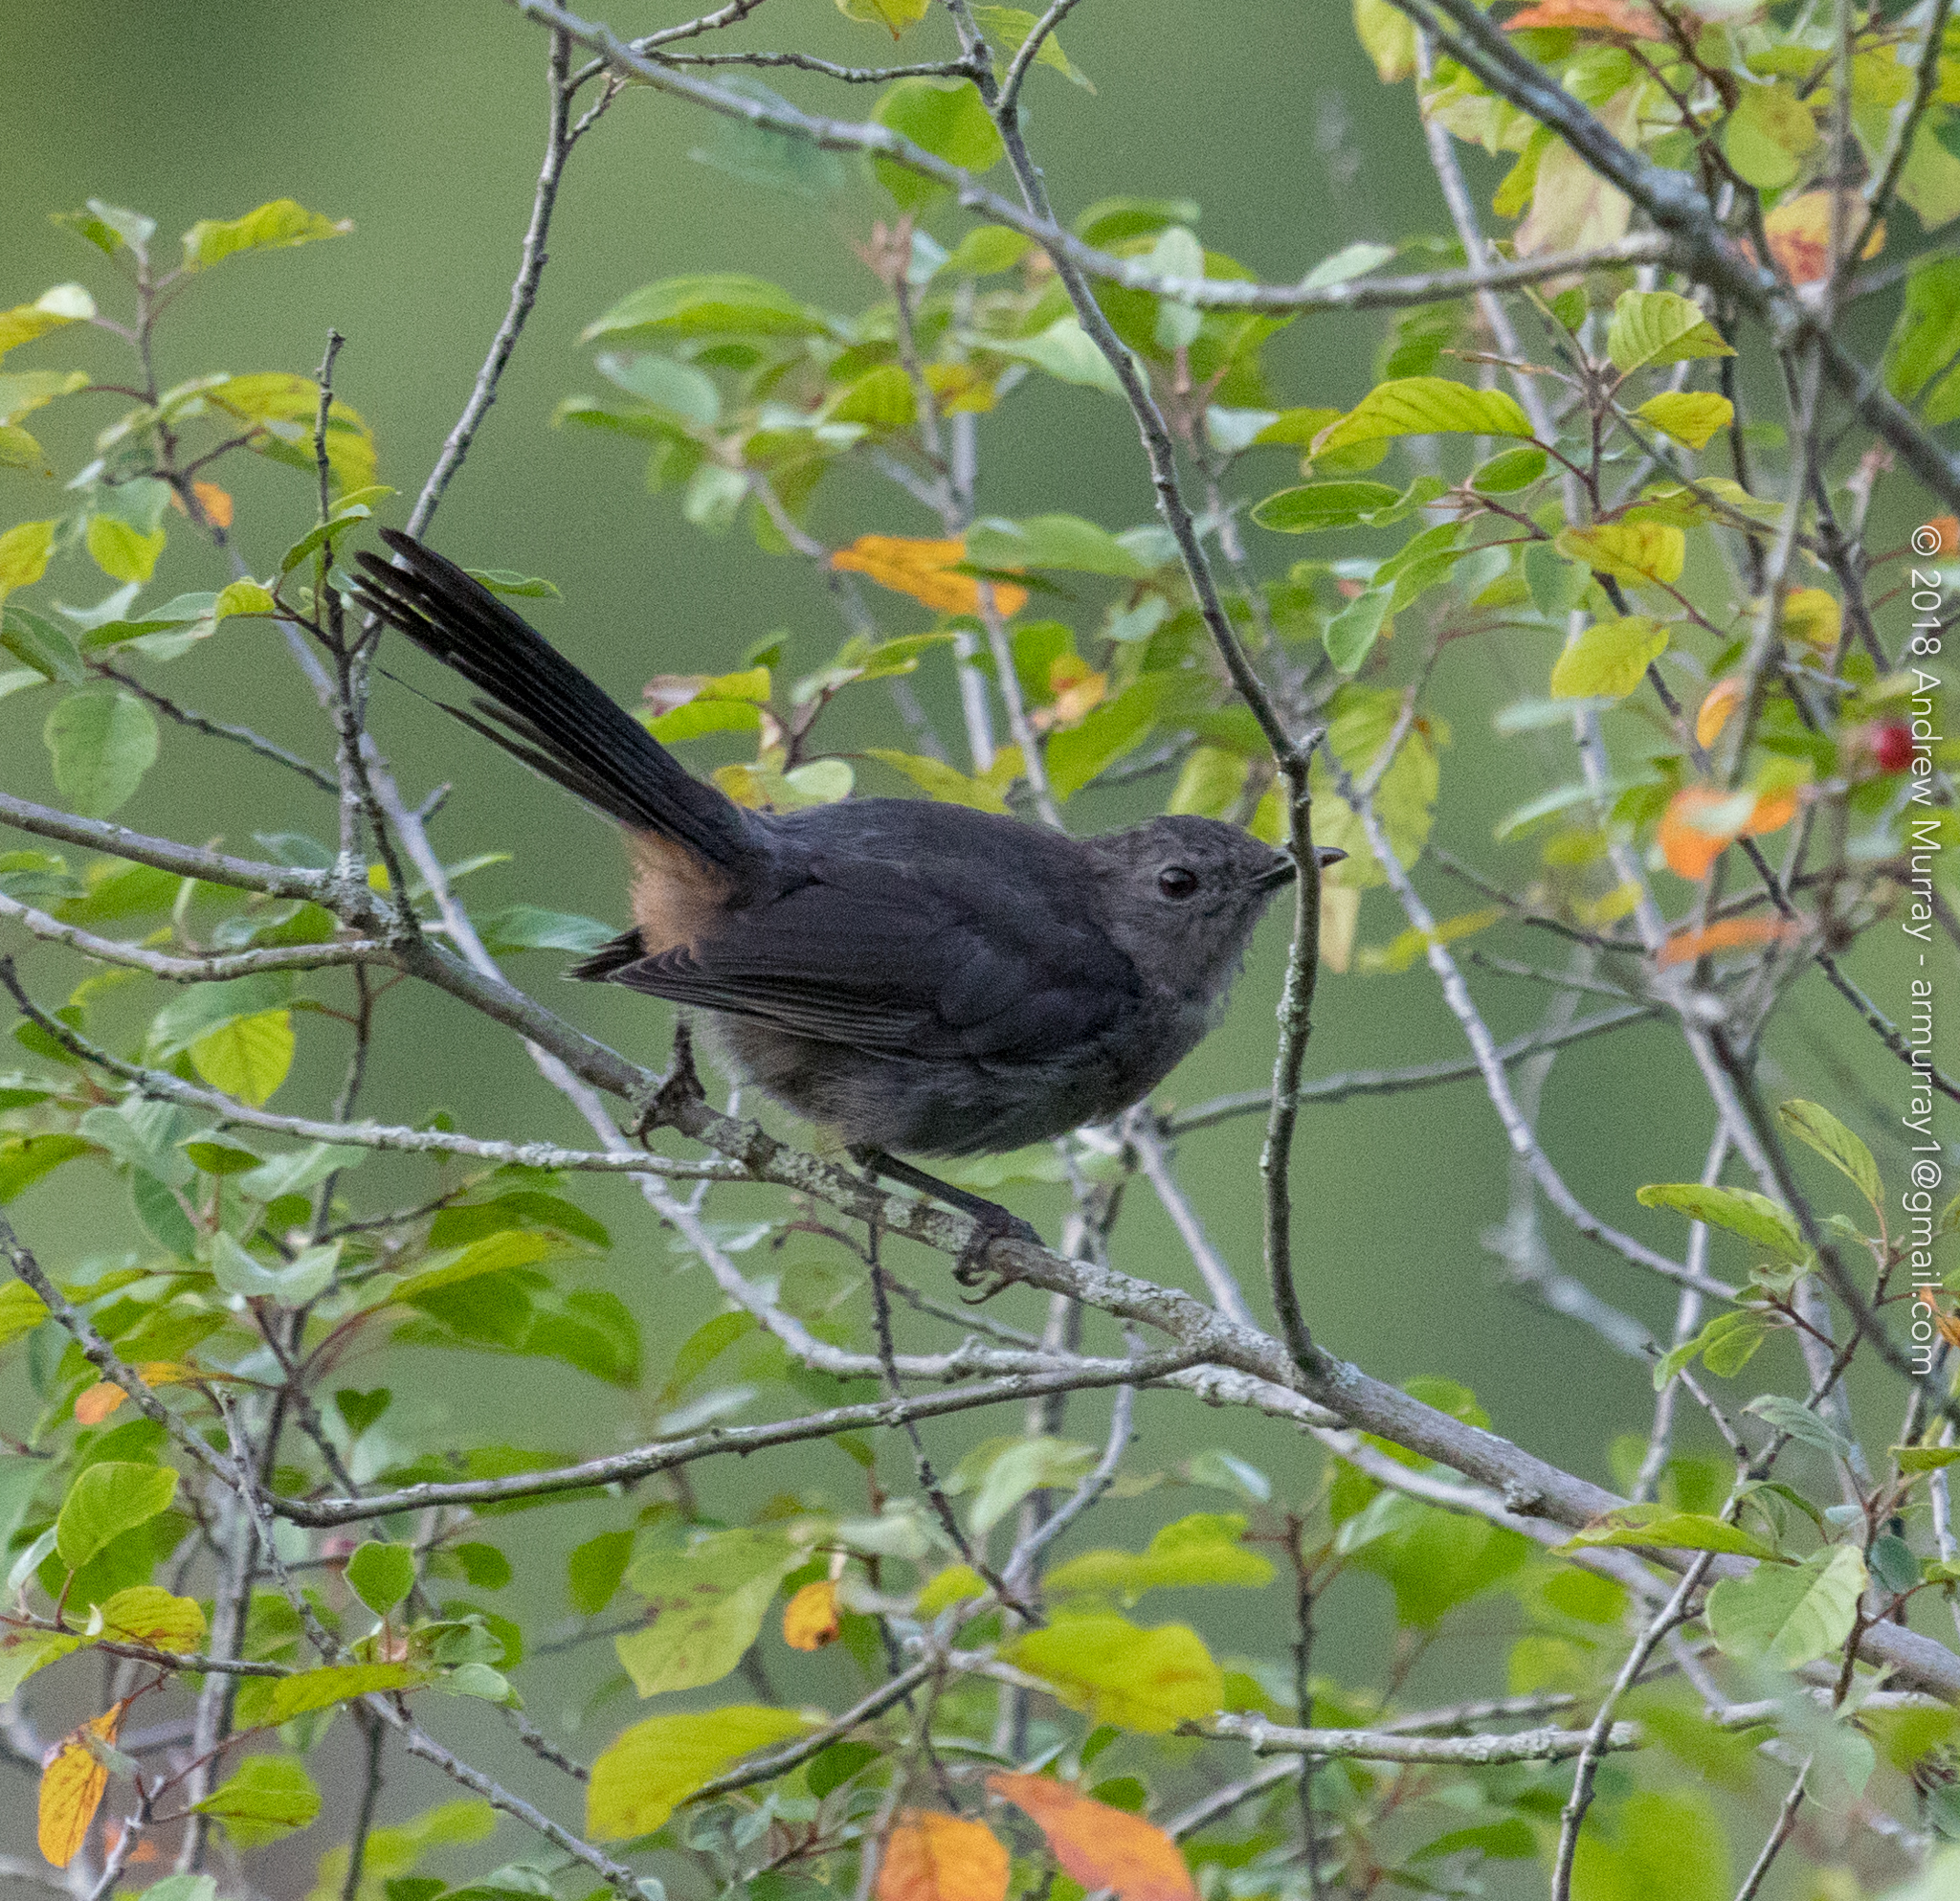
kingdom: Animalia
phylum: Chordata
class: Aves
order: Passeriformes
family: Mimidae
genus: Dumetella
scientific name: Dumetella carolinensis
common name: Gray catbird
